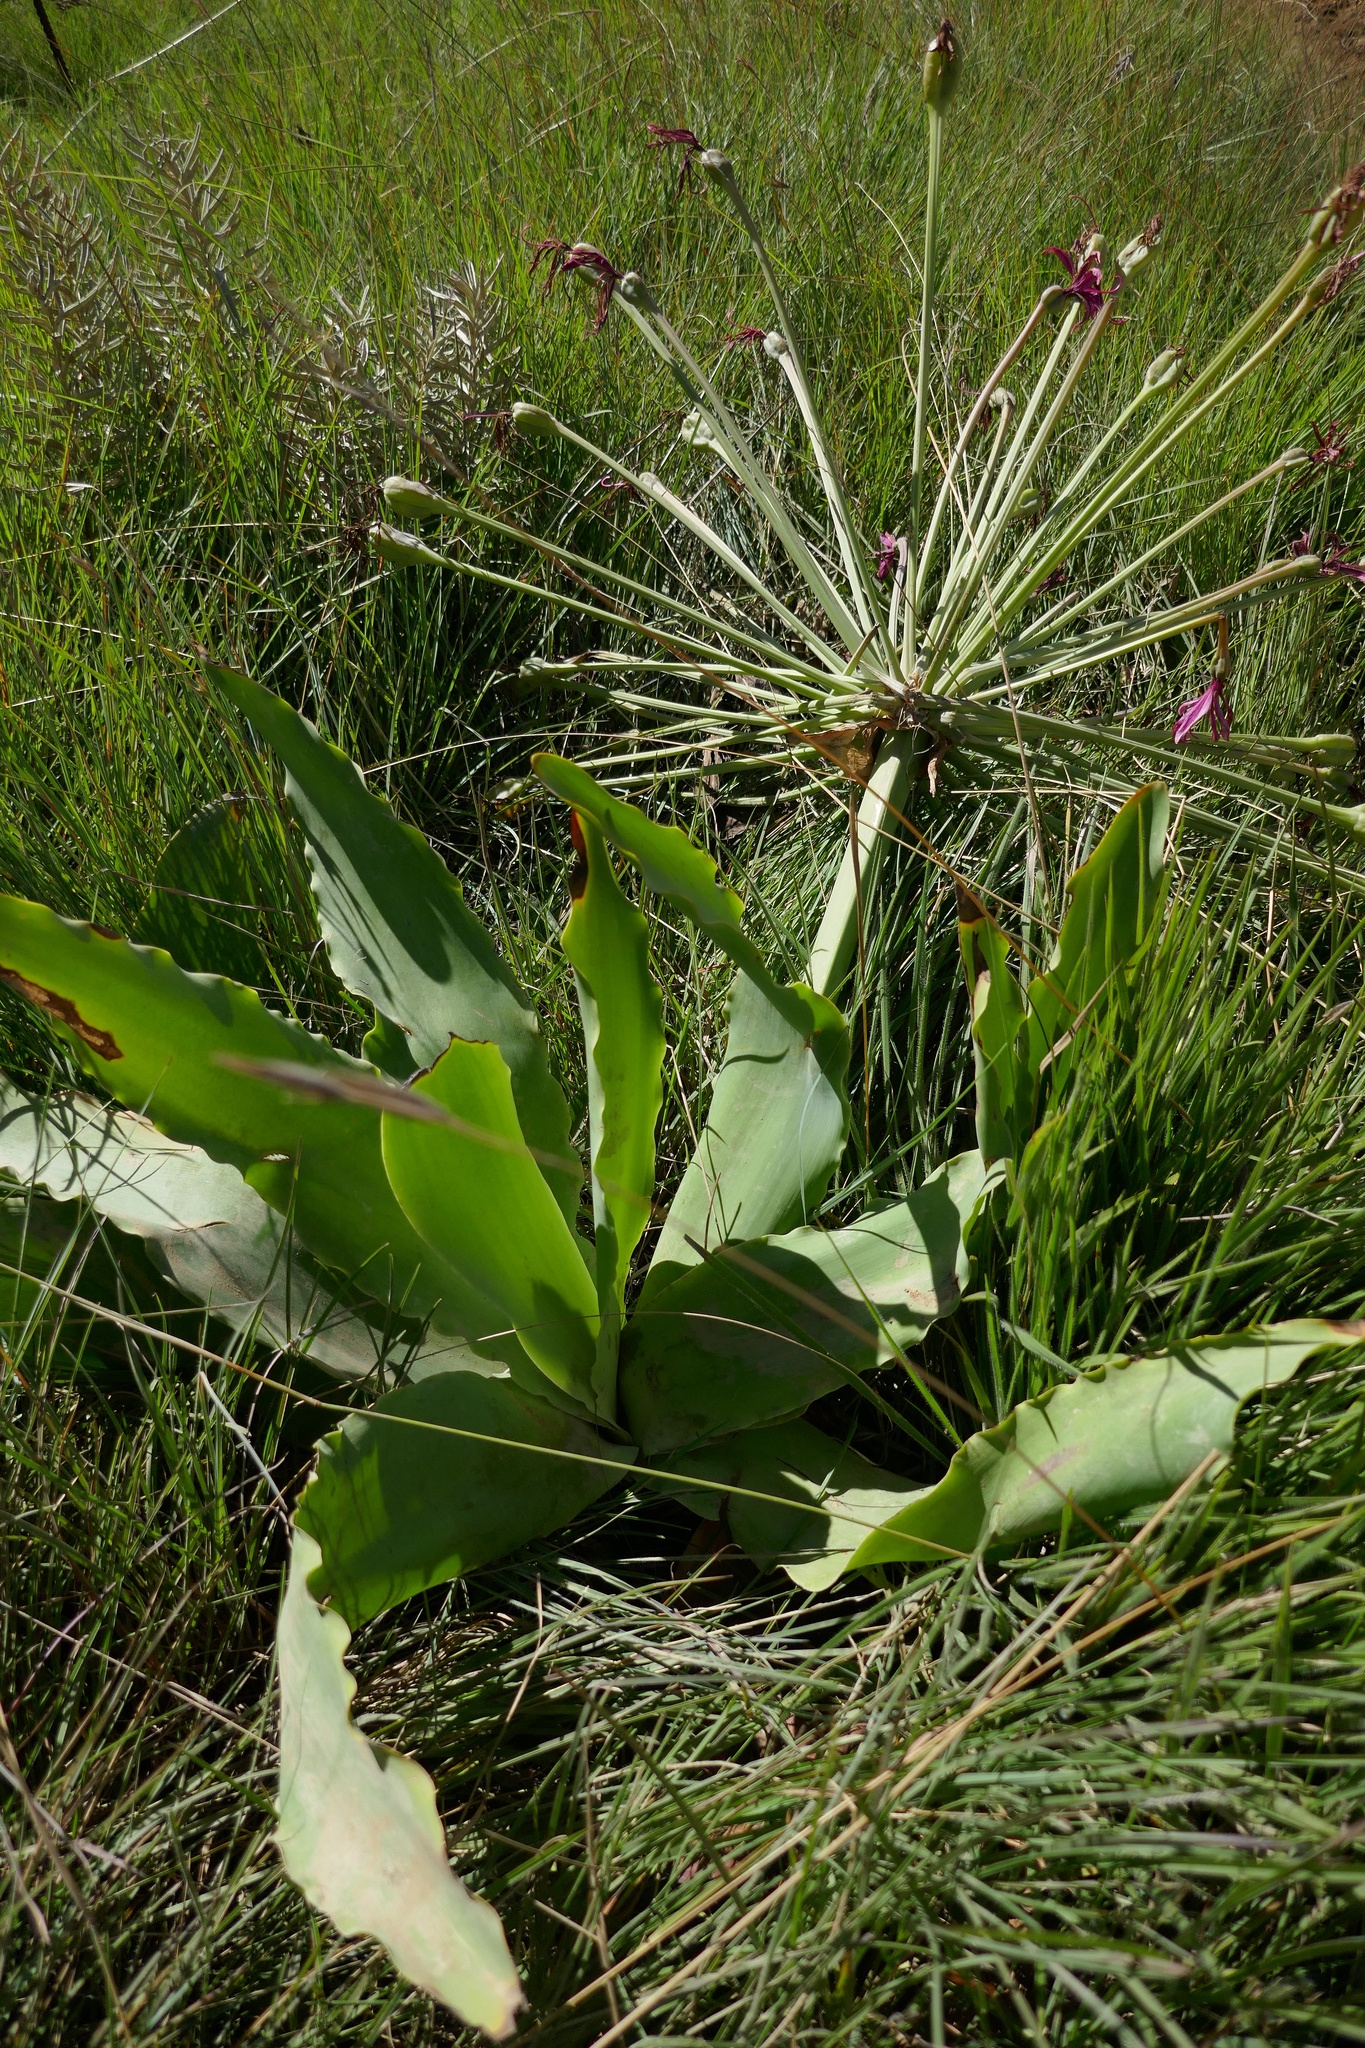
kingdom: Plantae
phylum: Tracheophyta
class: Liliopsida
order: Asparagales
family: Amaryllidaceae
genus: Brunsvigia
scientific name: Brunsvigia grandiflora
